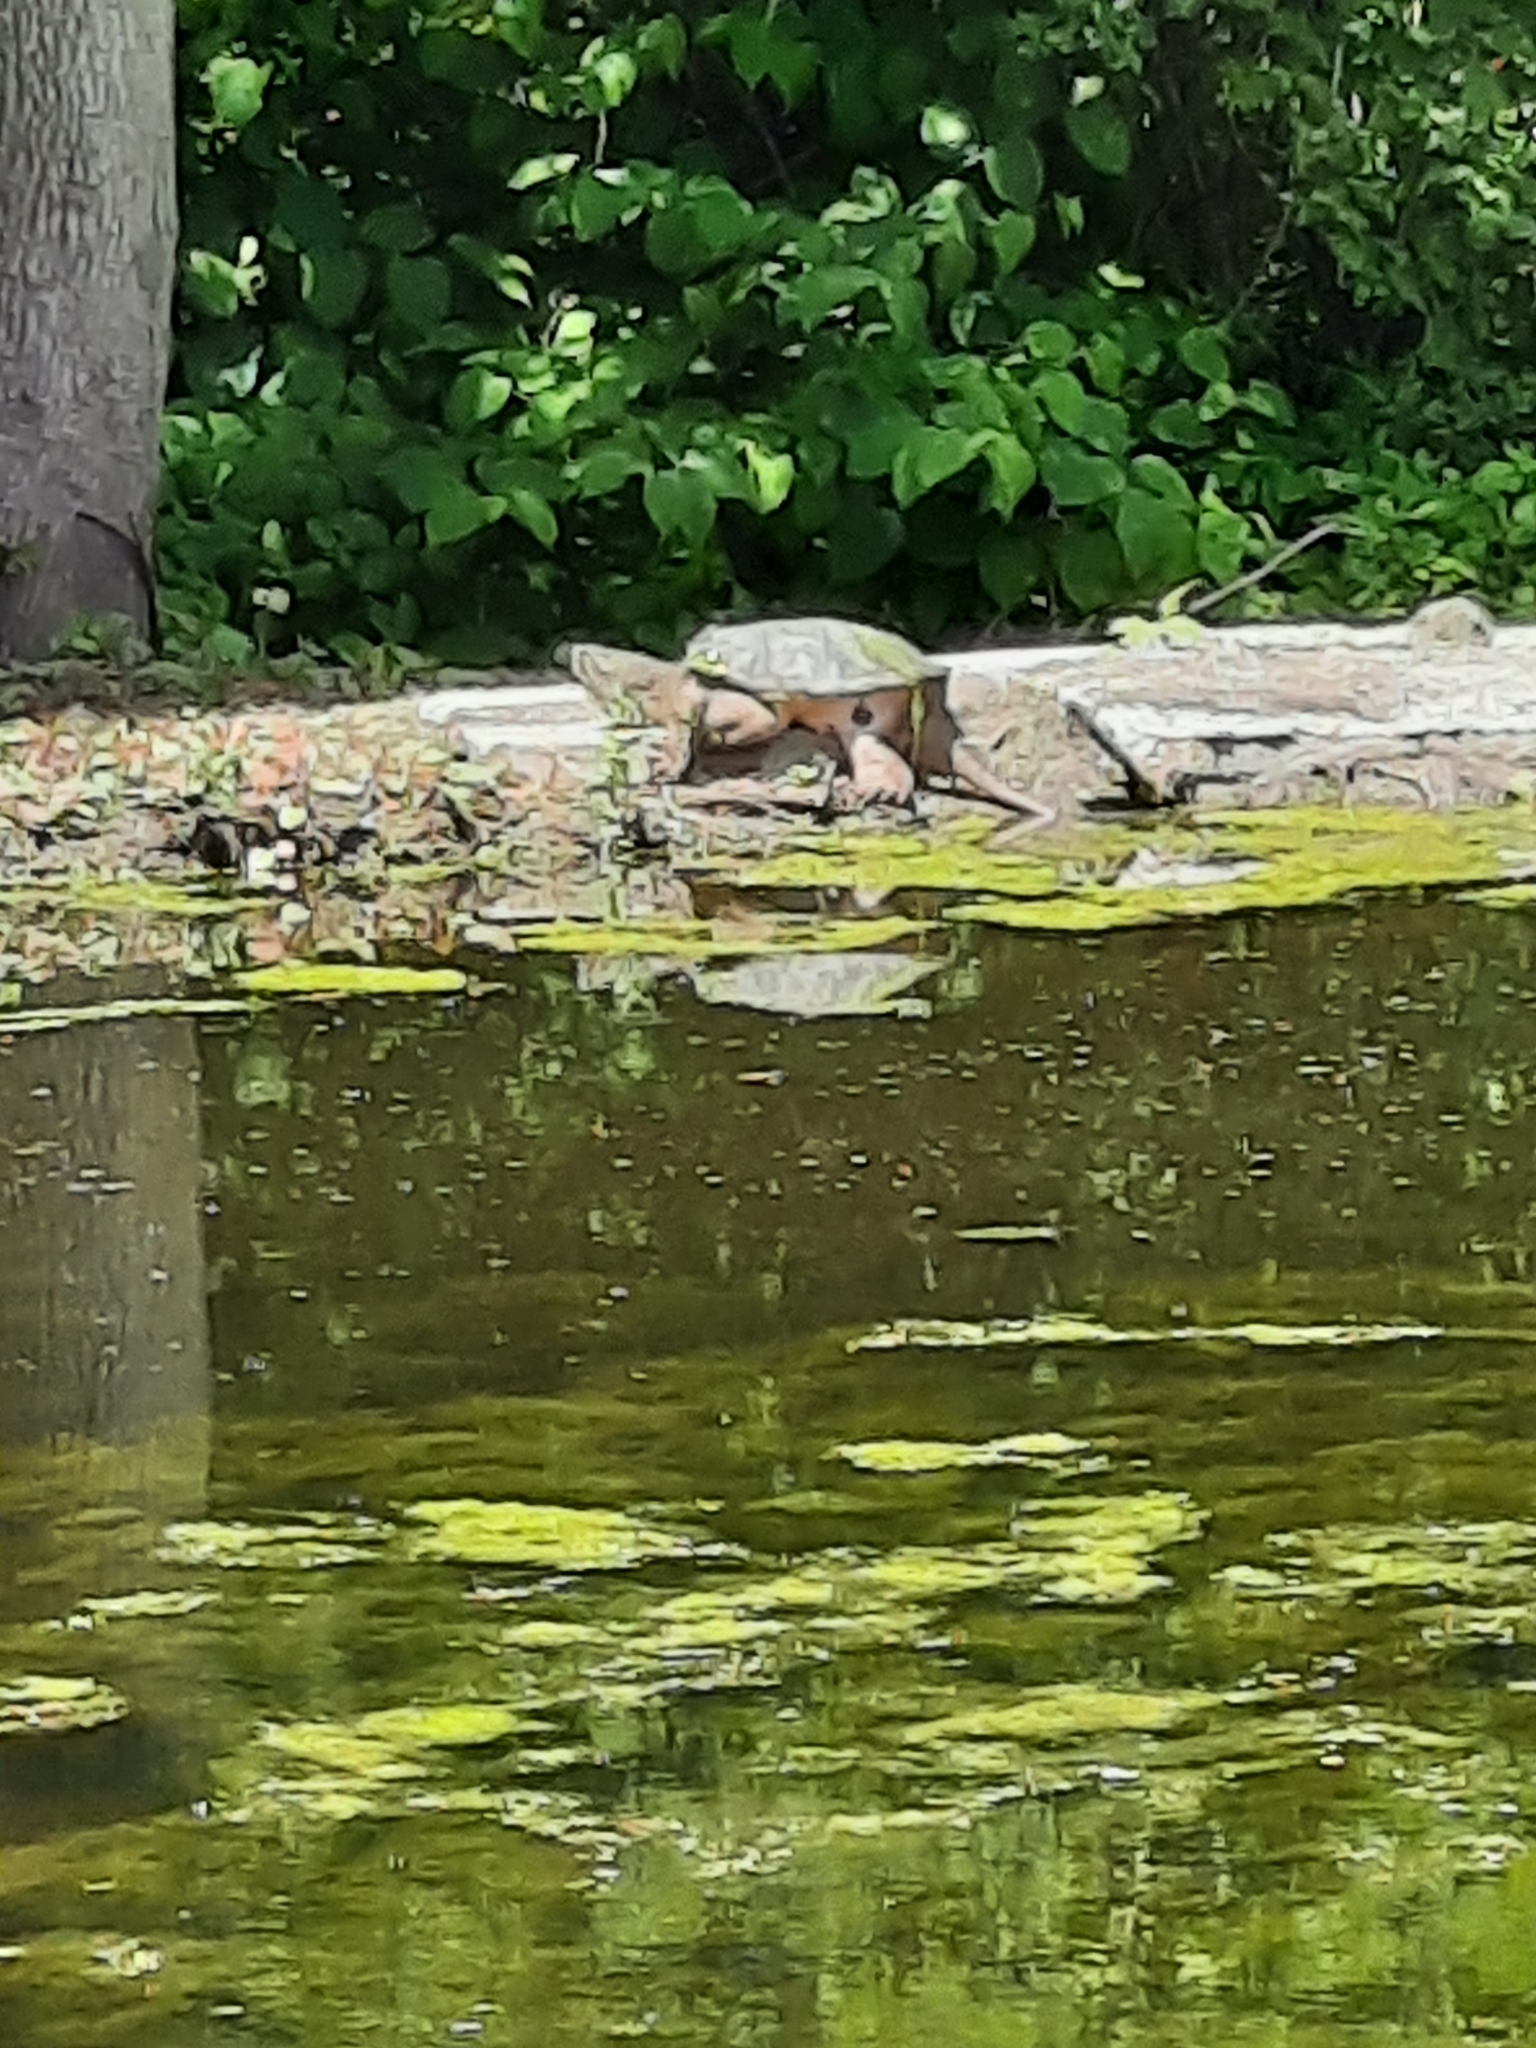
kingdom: Animalia
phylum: Chordata
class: Testudines
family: Chelydridae
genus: Chelydra
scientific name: Chelydra serpentina
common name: Common snapping turtle
